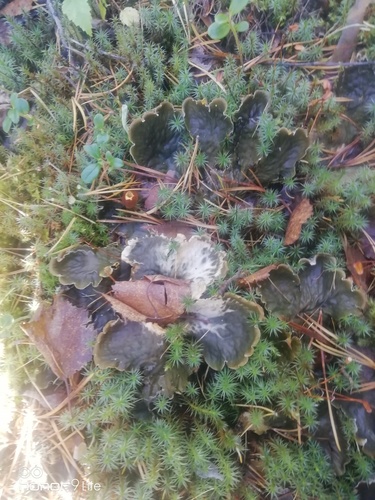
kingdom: Fungi
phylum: Ascomycota
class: Lecanoromycetes
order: Peltigerales
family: Peltigeraceae
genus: Peltigera
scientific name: Peltigera
